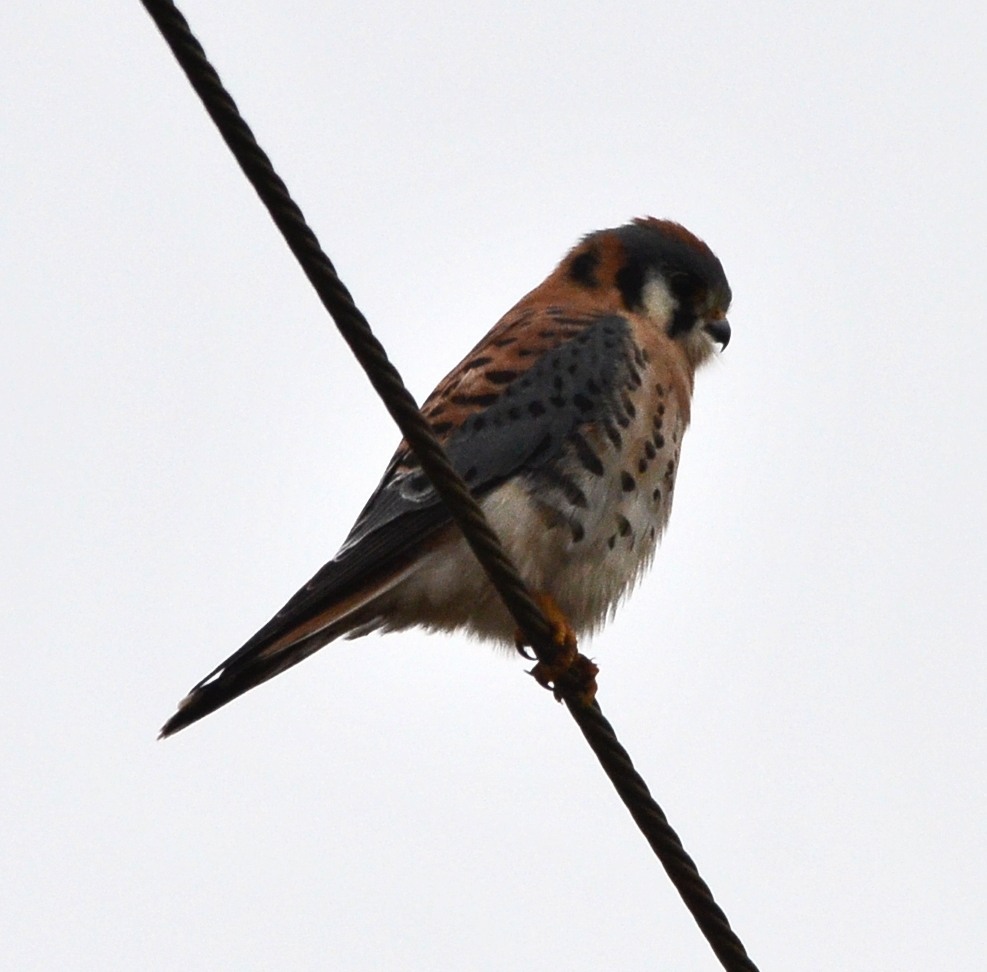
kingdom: Animalia
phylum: Chordata
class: Aves
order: Falconiformes
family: Falconidae
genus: Falco
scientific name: Falco sparverius
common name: American kestrel
